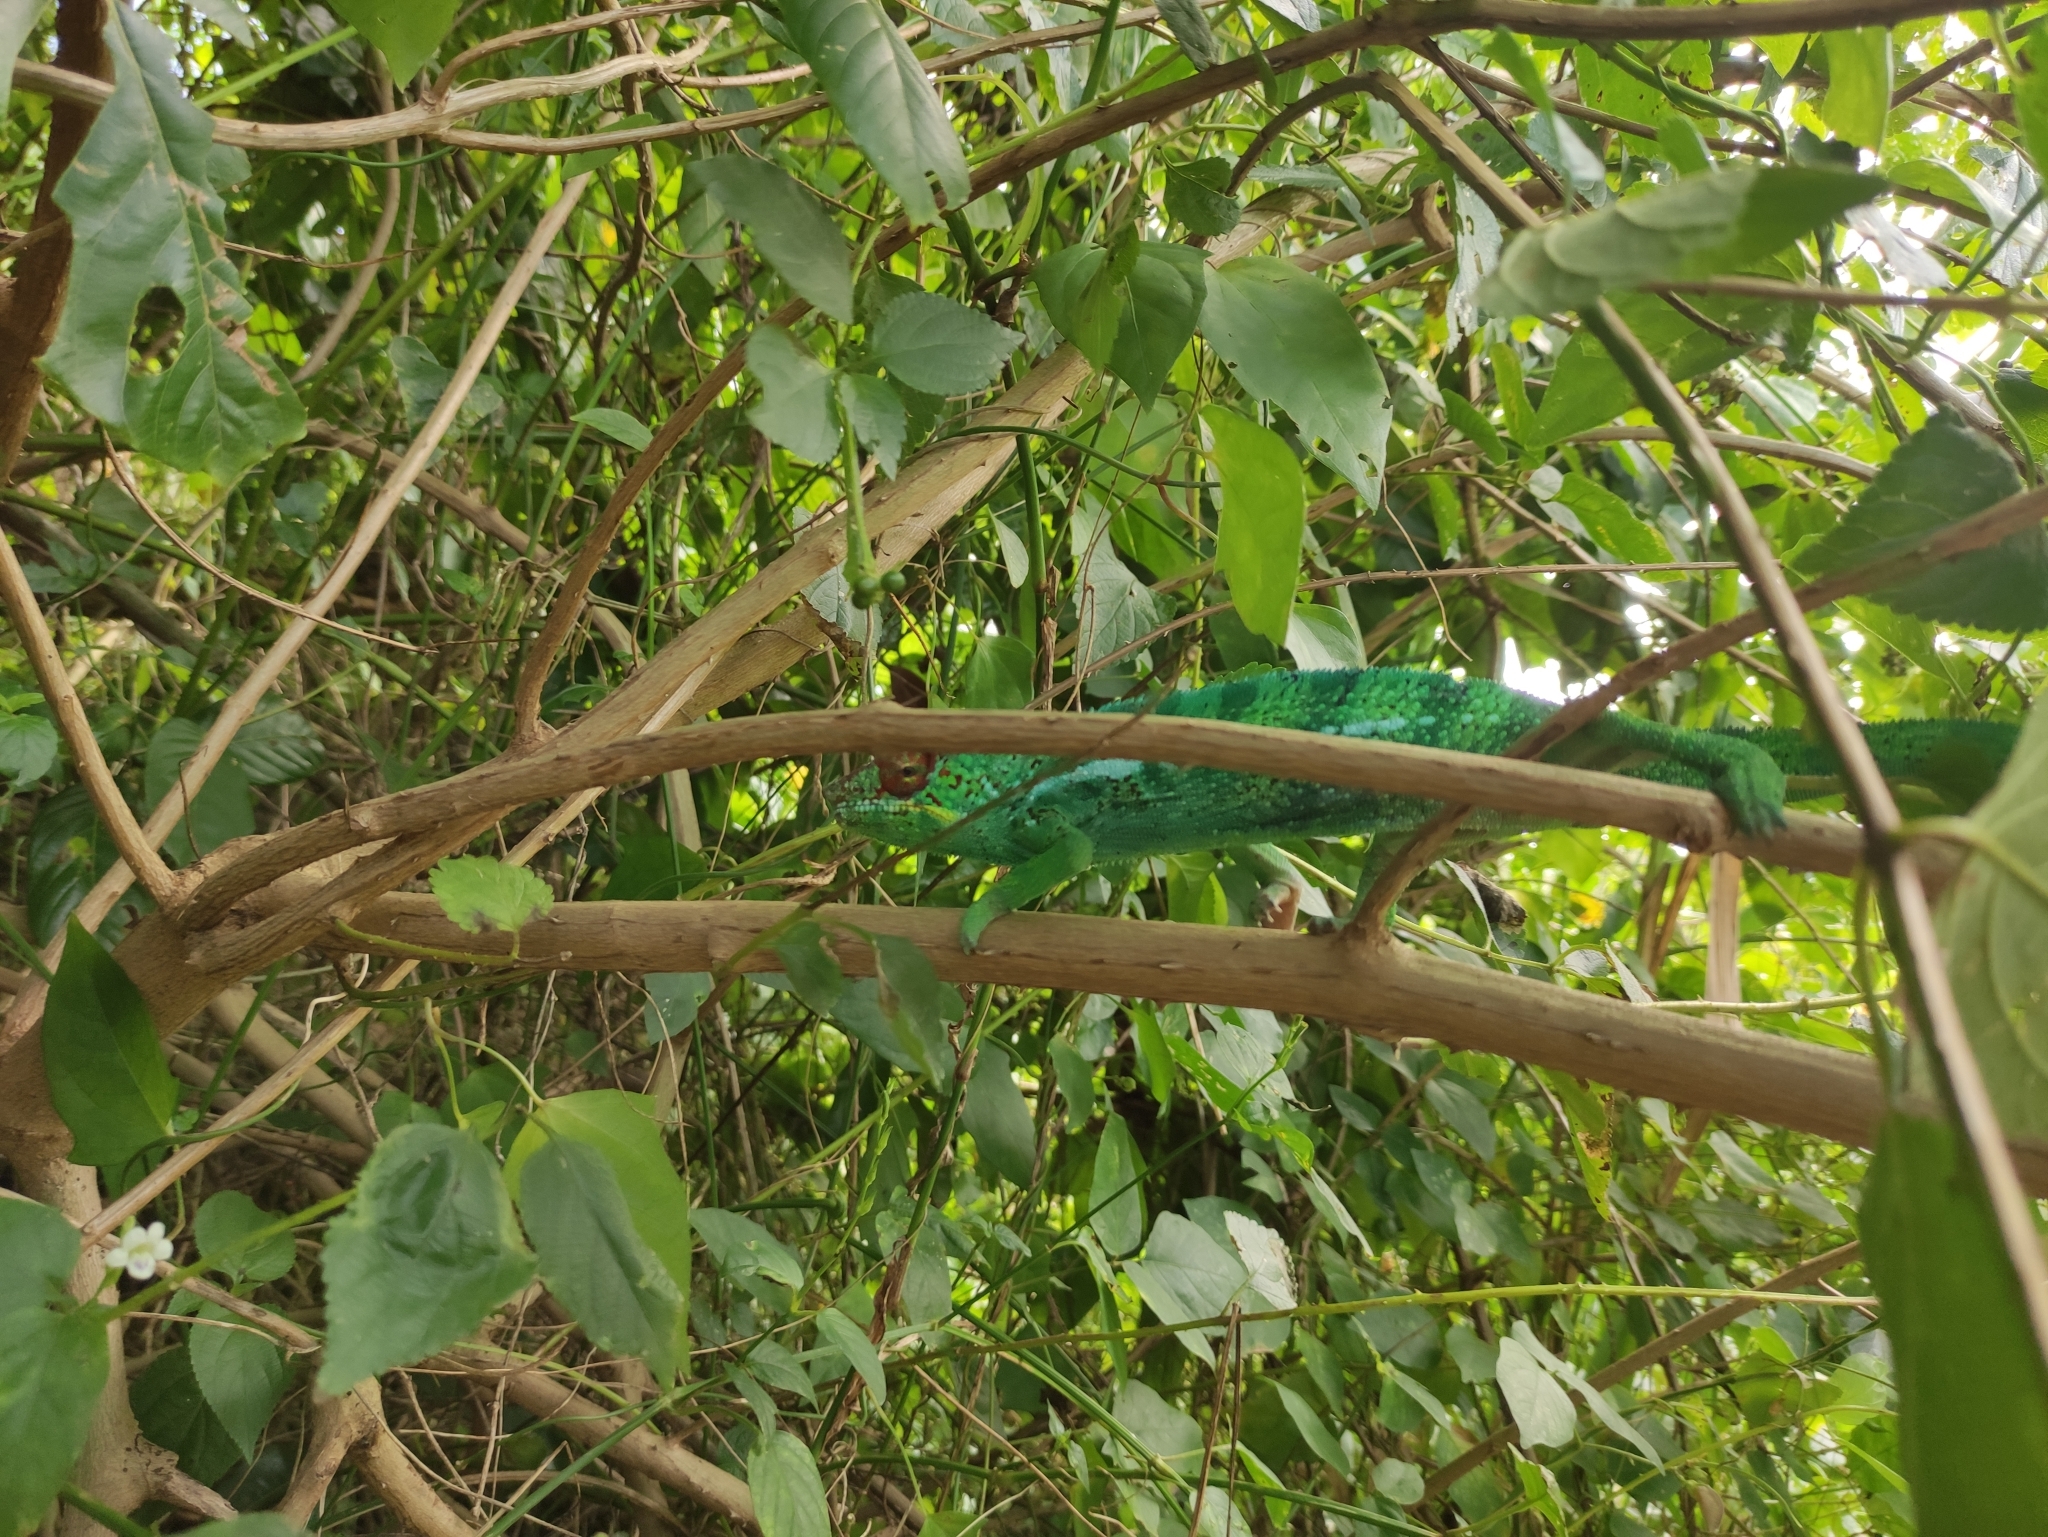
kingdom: Animalia
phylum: Chordata
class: Squamata
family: Chamaeleonidae
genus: Furcifer
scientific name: Furcifer pardalis
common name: Panther chameleon
